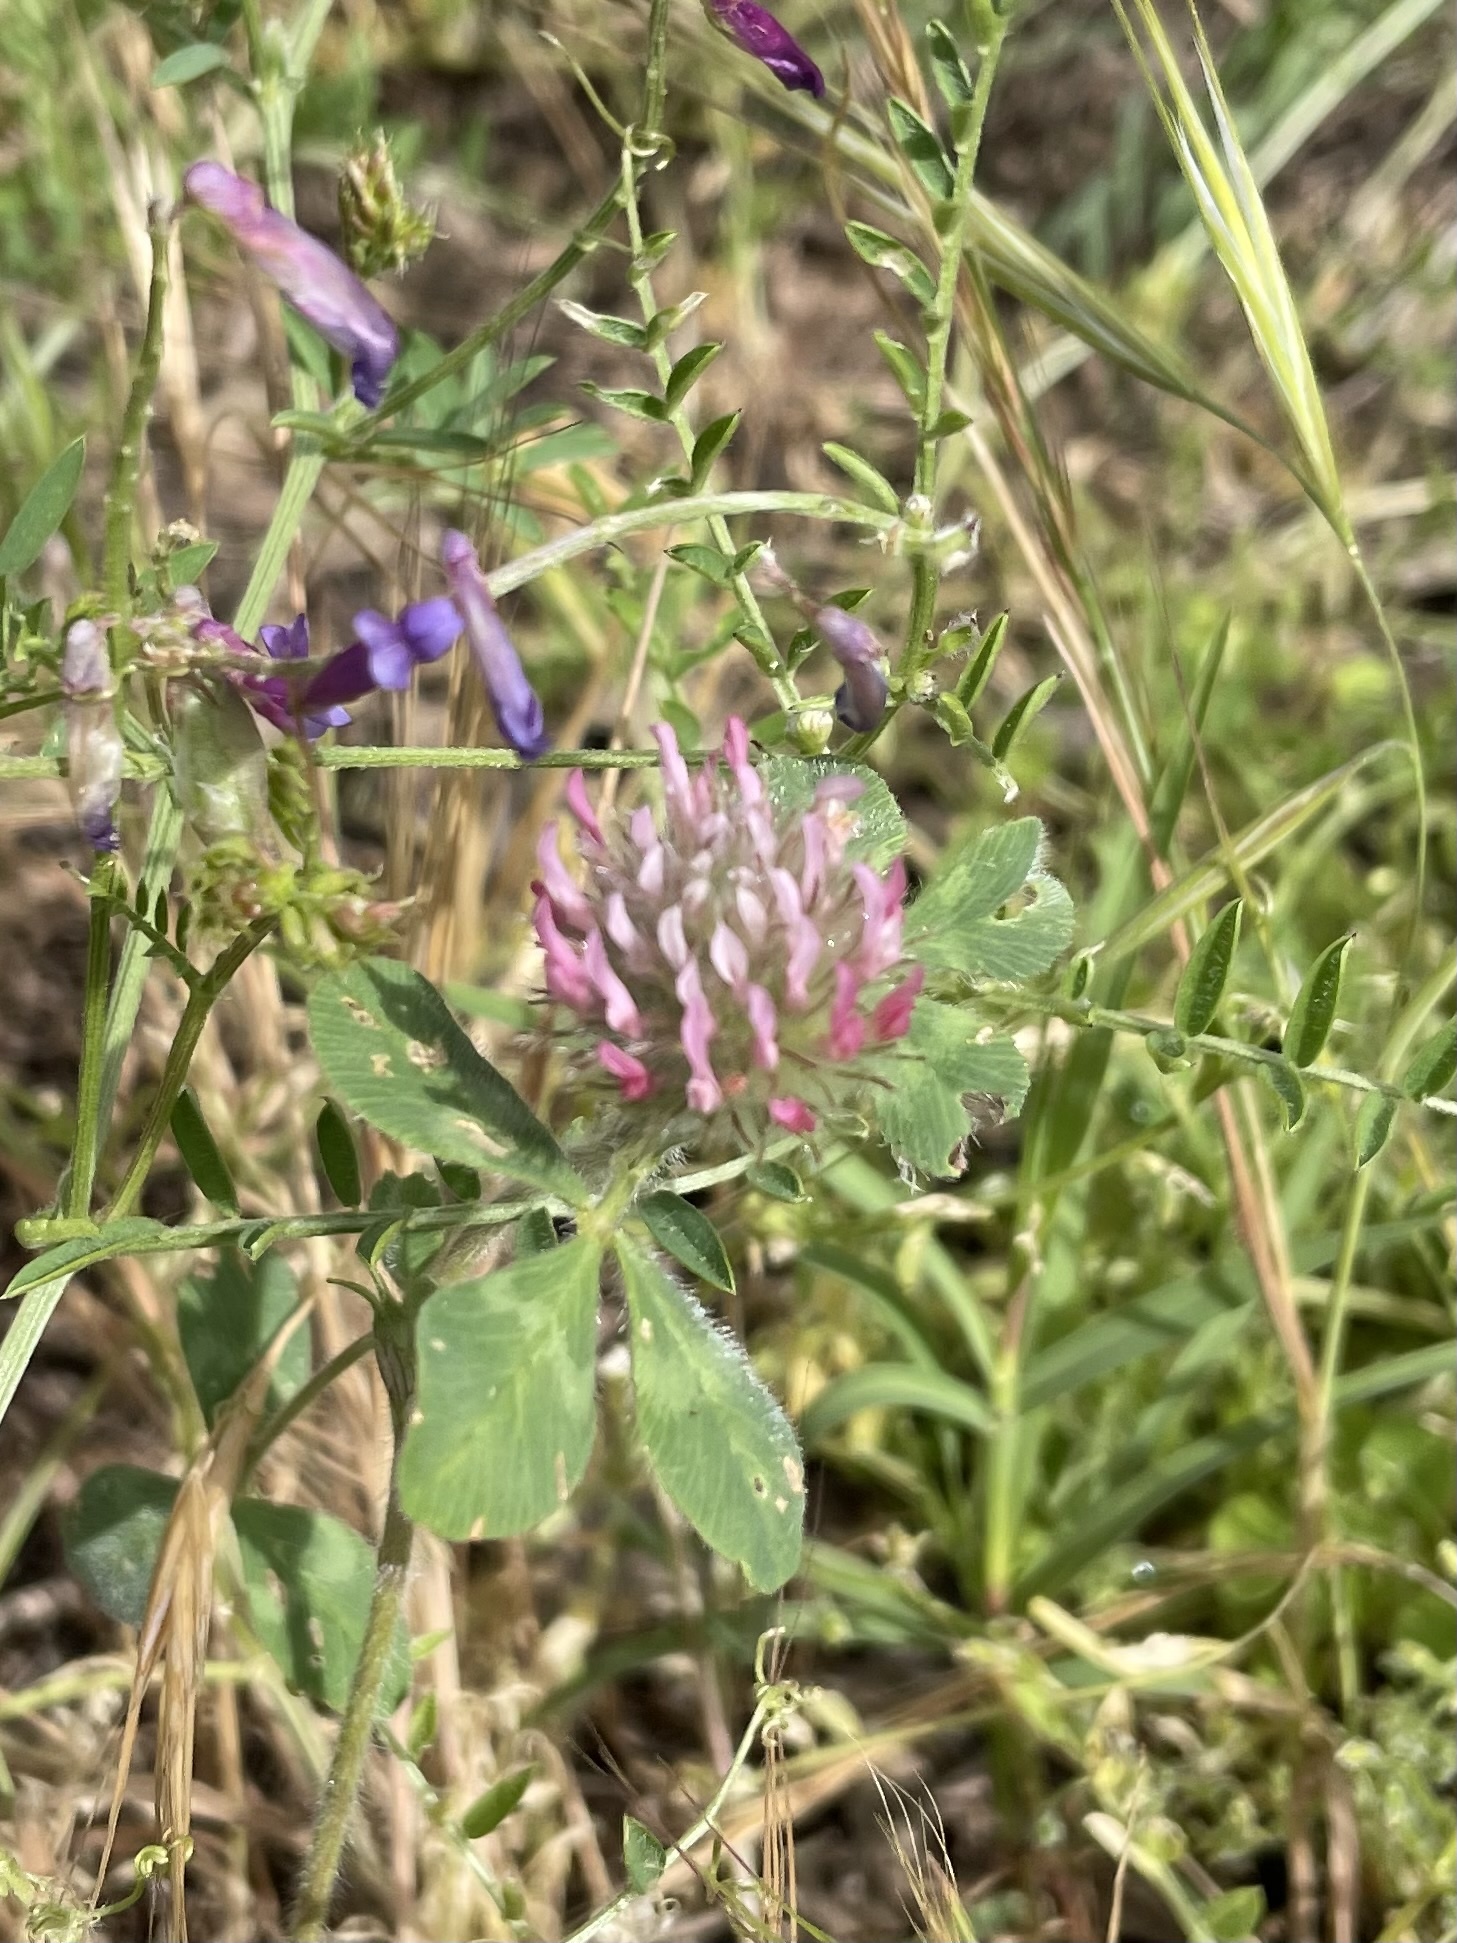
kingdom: Plantae
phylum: Tracheophyta
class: Magnoliopsida
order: Fabales
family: Fabaceae
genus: Trifolium
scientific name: Trifolium hirtum
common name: Rose clover
